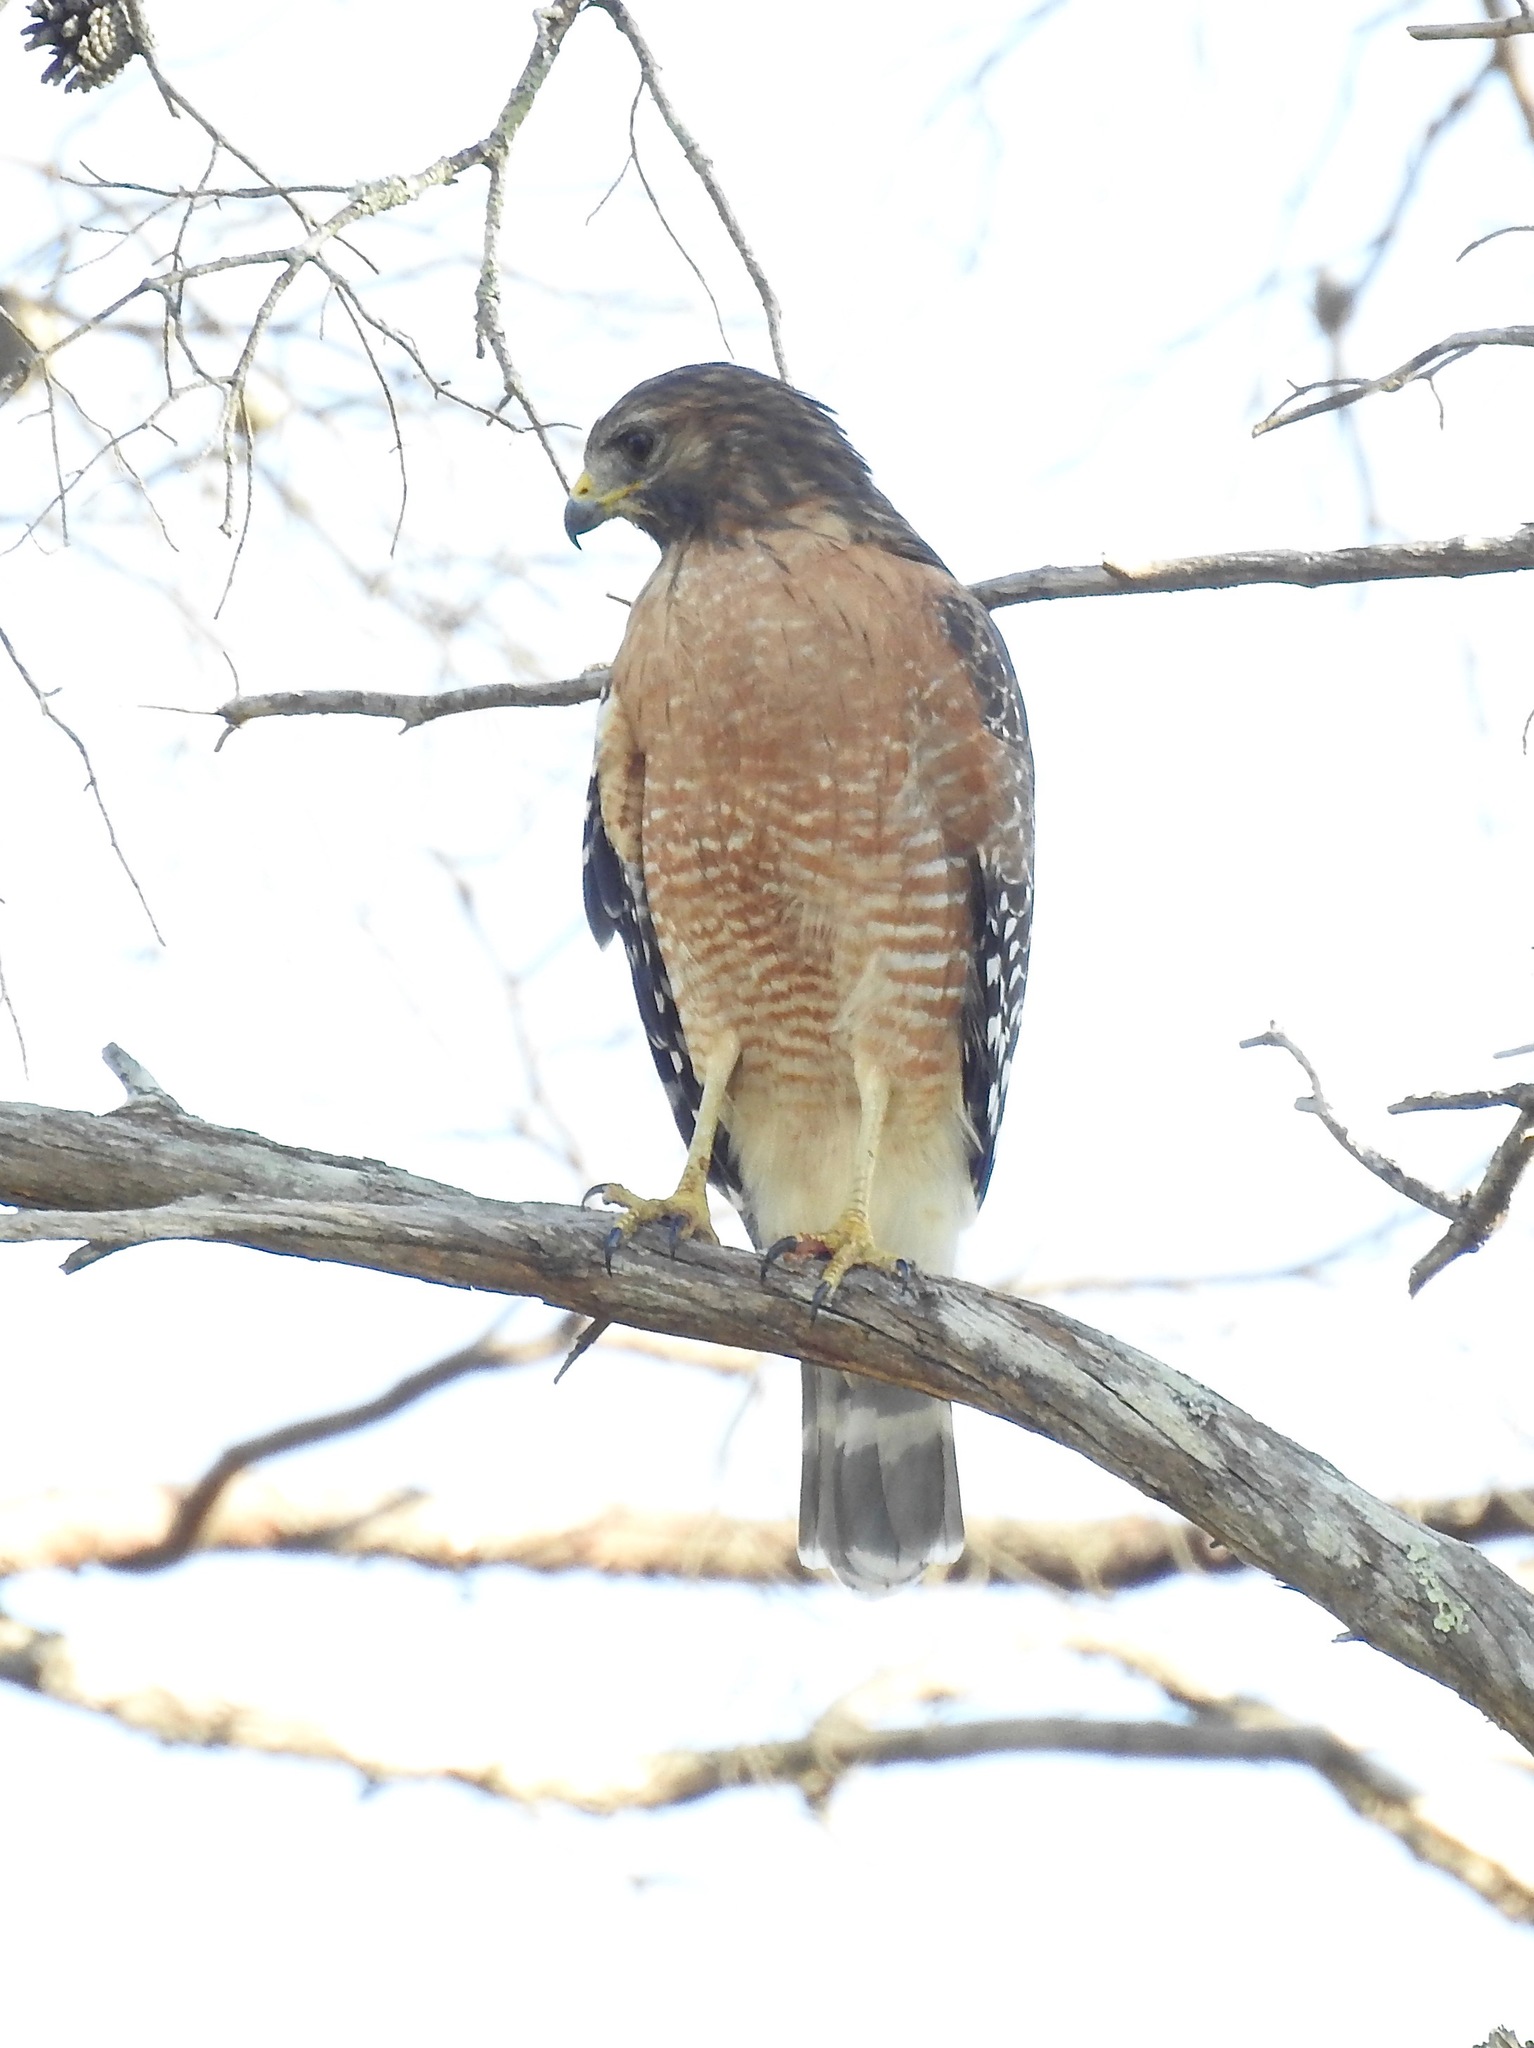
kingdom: Animalia
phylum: Chordata
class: Aves
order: Accipitriformes
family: Accipitridae
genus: Buteo
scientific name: Buteo lineatus
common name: Red-shouldered hawk
